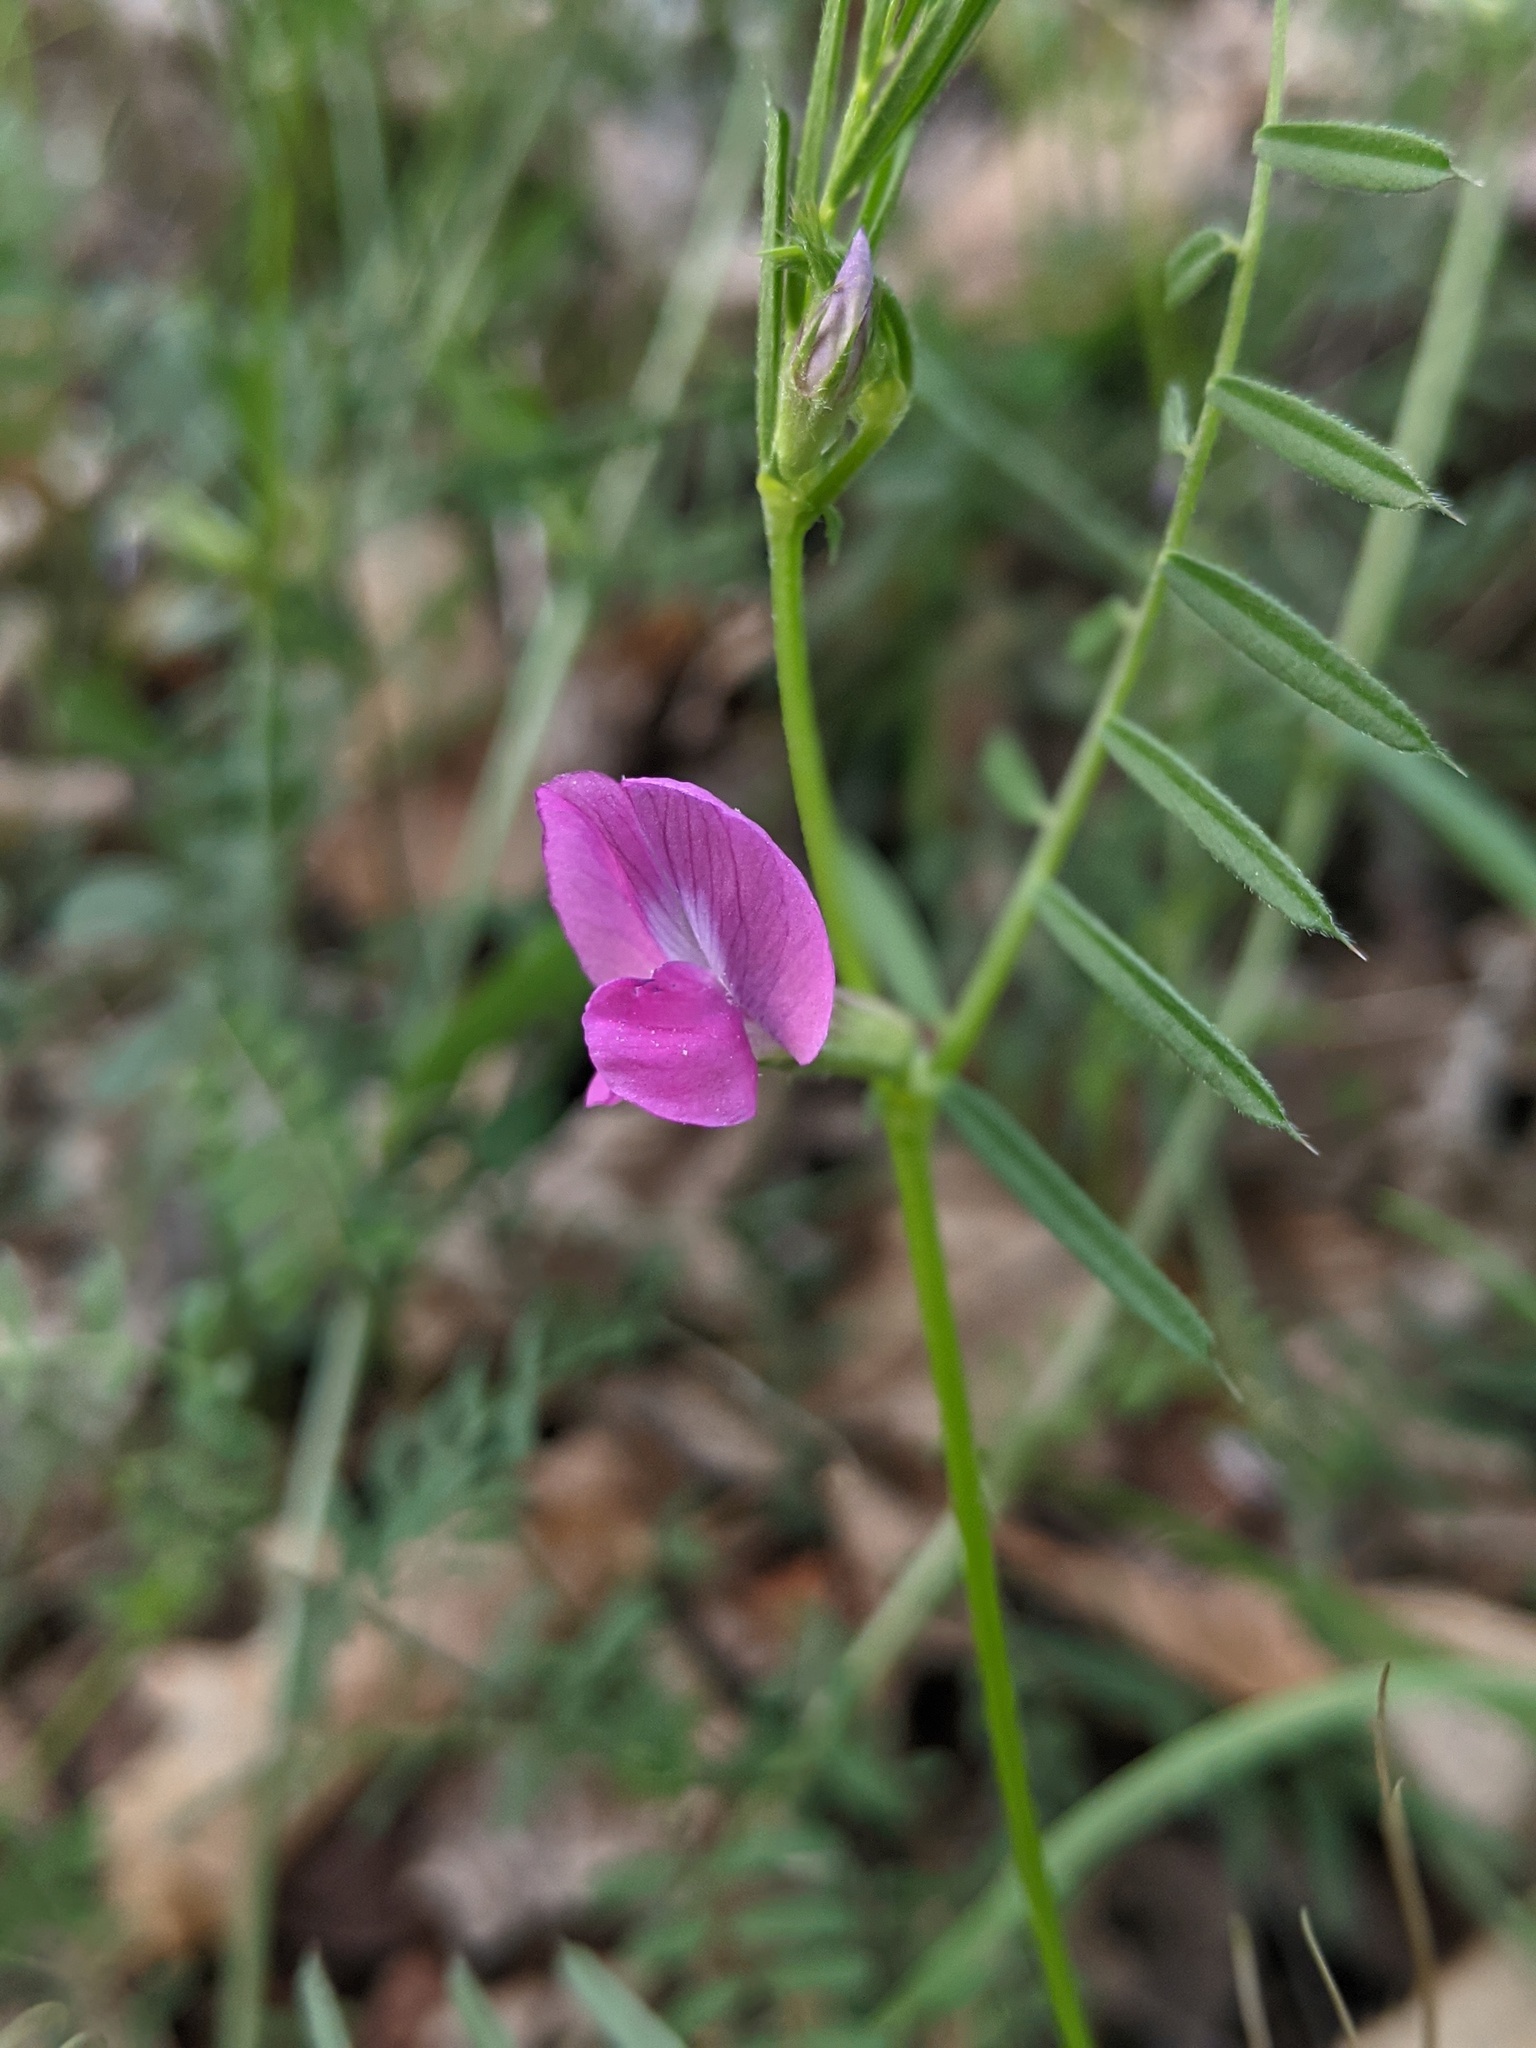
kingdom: Plantae
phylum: Tracheophyta
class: Magnoliopsida
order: Fabales
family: Fabaceae
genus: Vicia
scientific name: Vicia sativa
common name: Garden vetch
